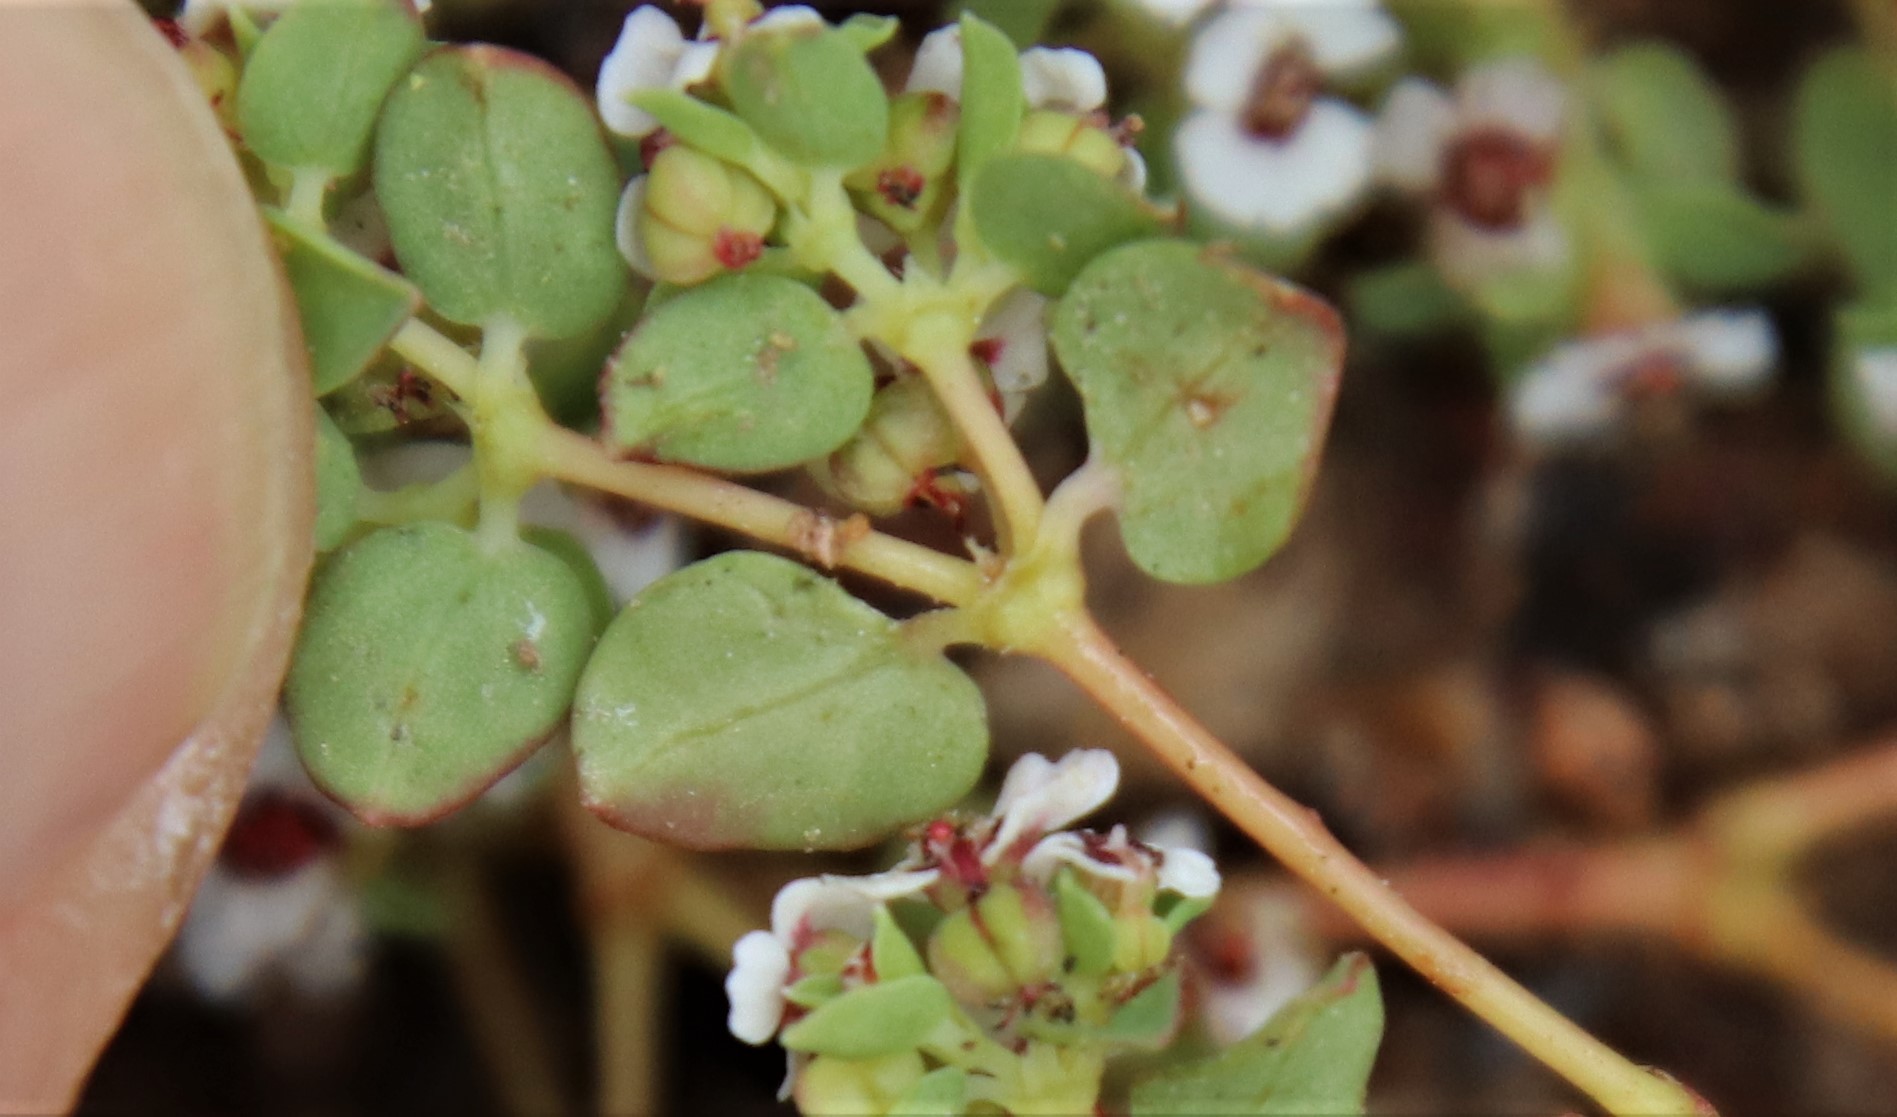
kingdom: Plantae
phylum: Tracheophyta
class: Magnoliopsida
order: Malpighiales
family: Euphorbiaceae
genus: Euphorbia
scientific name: Euphorbia polycarpa
